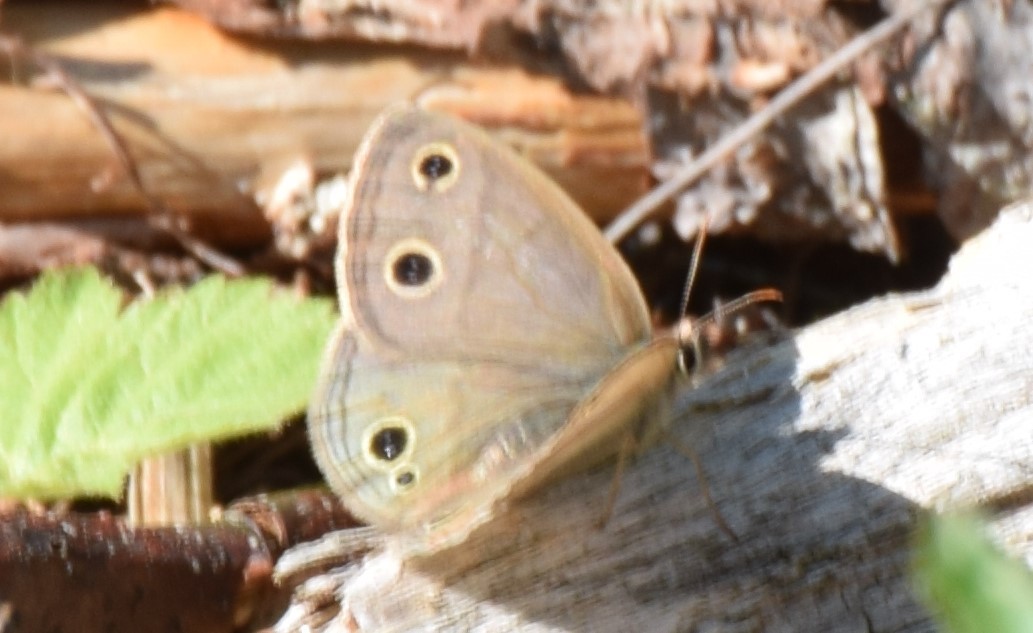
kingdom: Animalia
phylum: Arthropoda
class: Insecta
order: Lepidoptera
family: Nymphalidae
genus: Euptychia
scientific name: Euptychia cymela
